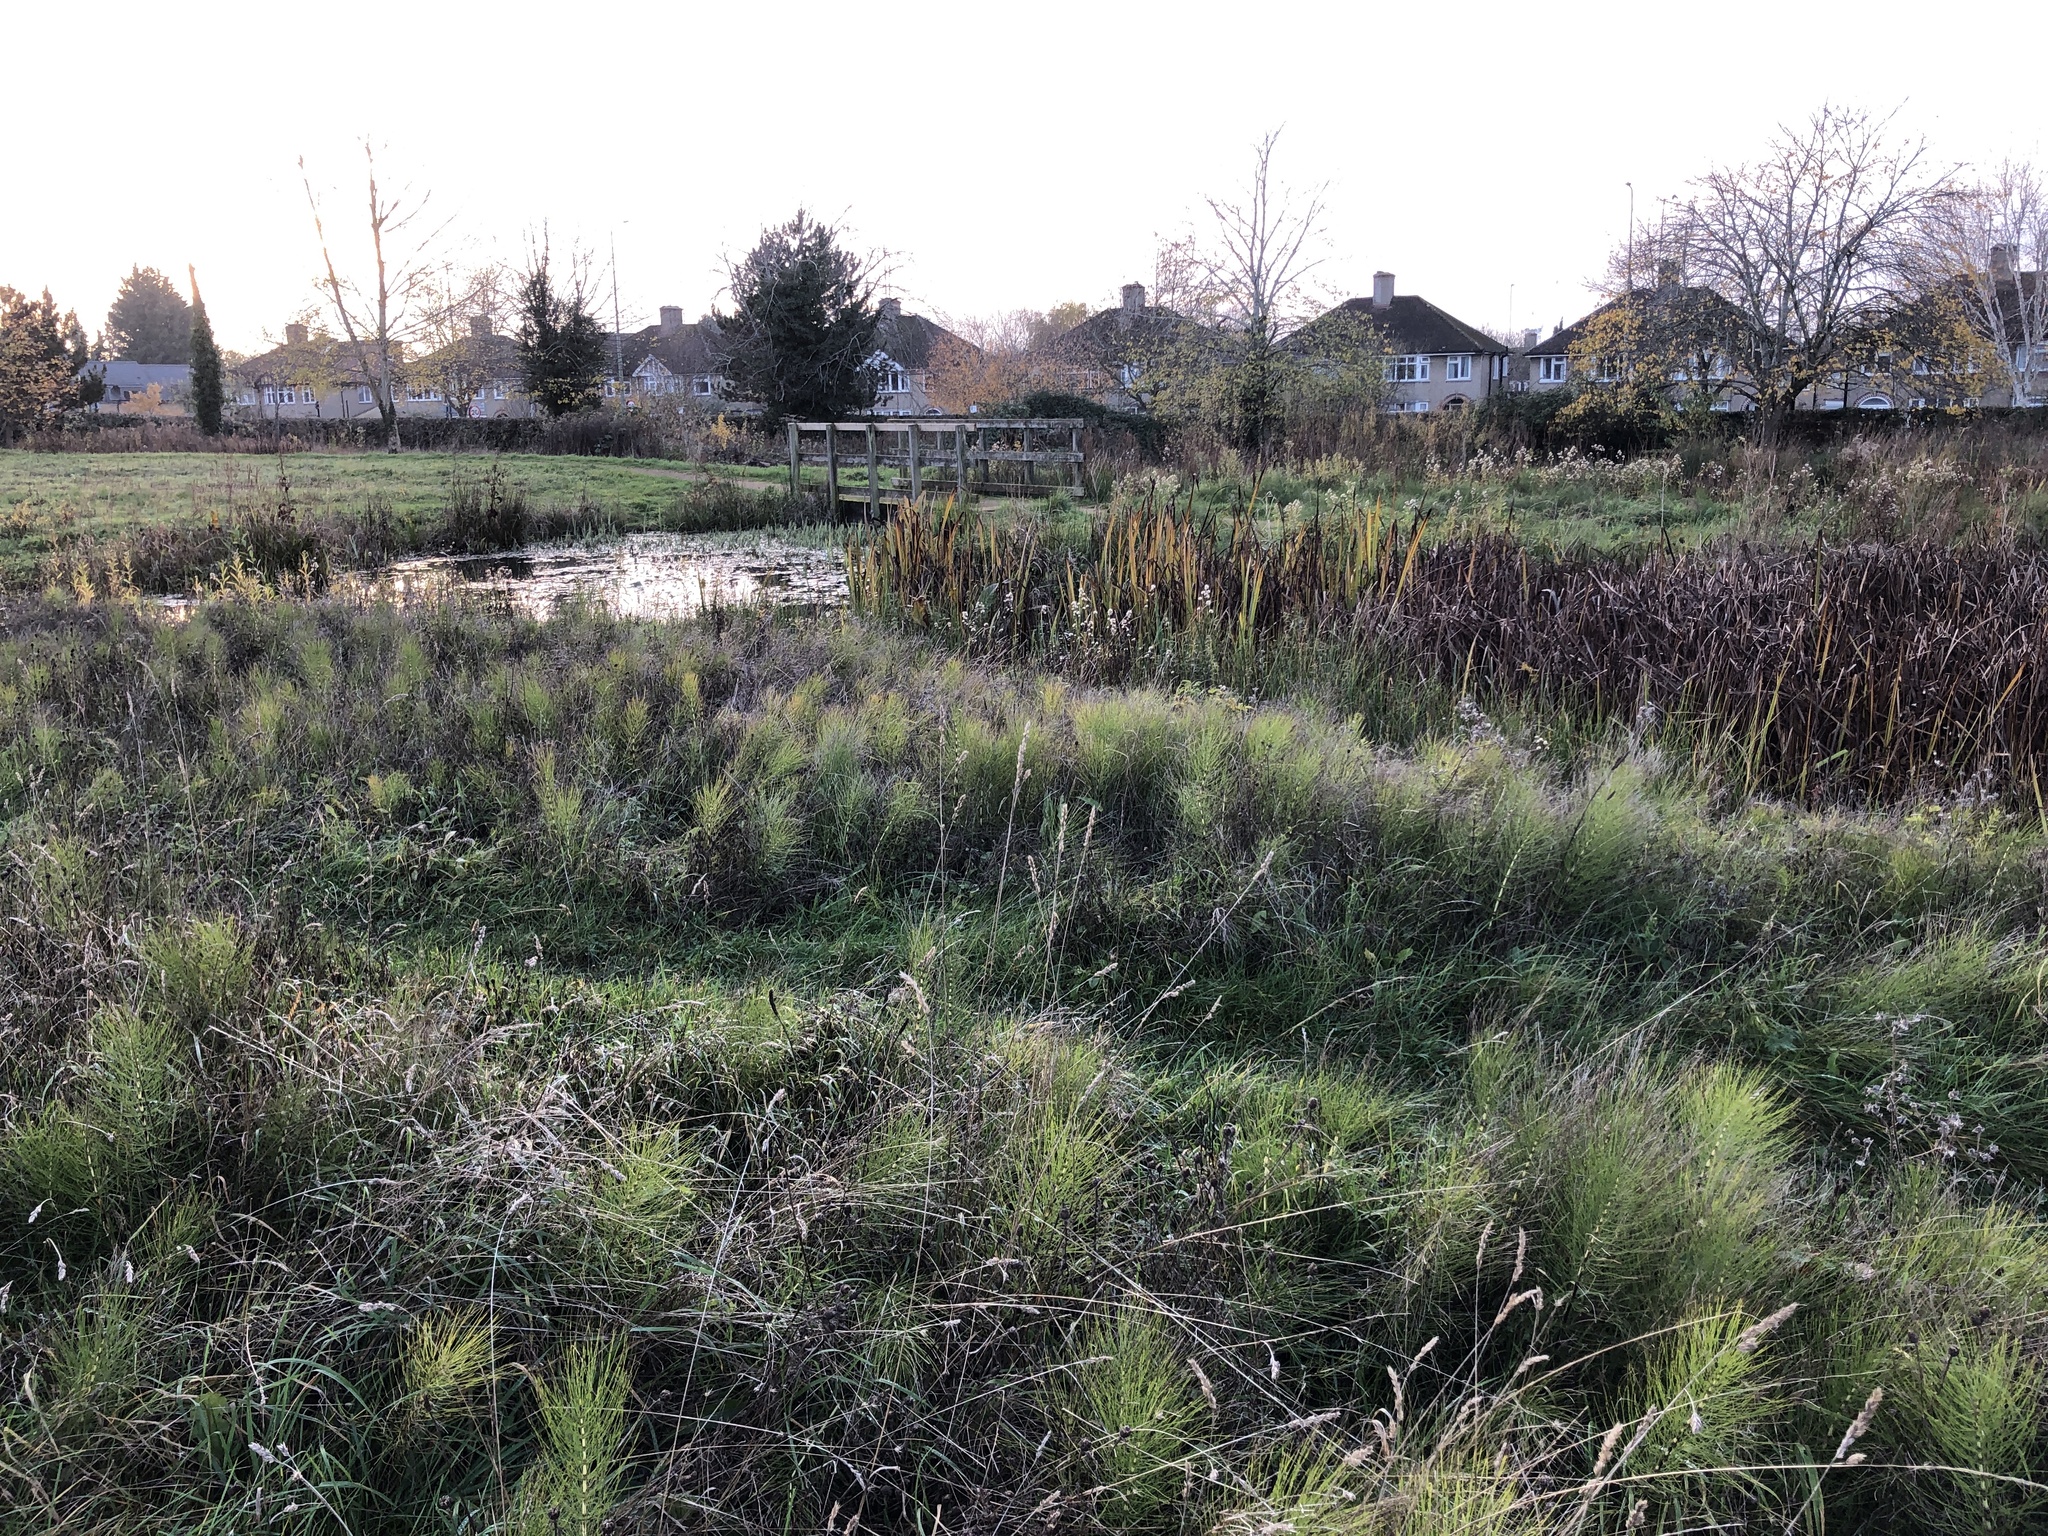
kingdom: Plantae
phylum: Tracheophyta
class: Polypodiopsida
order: Equisetales
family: Equisetaceae
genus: Equisetum
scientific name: Equisetum telmateia
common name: Great horsetail
